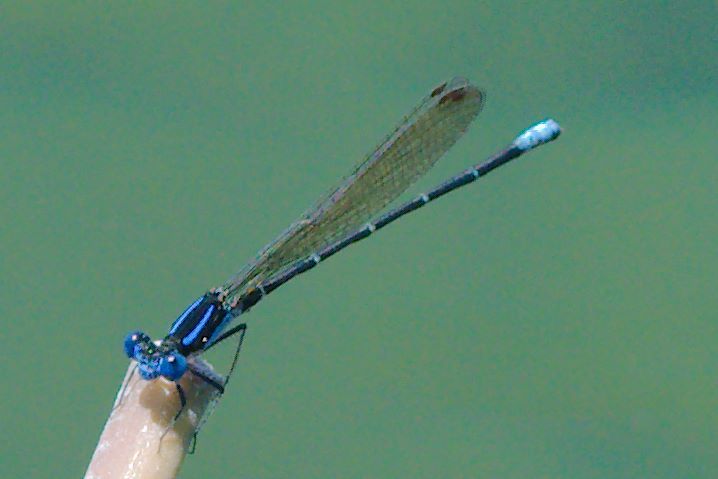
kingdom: Animalia
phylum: Arthropoda
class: Insecta
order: Odonata
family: Coenagrionidae
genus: Argia
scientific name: Argia sedula
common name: Blue-ringed dancer
